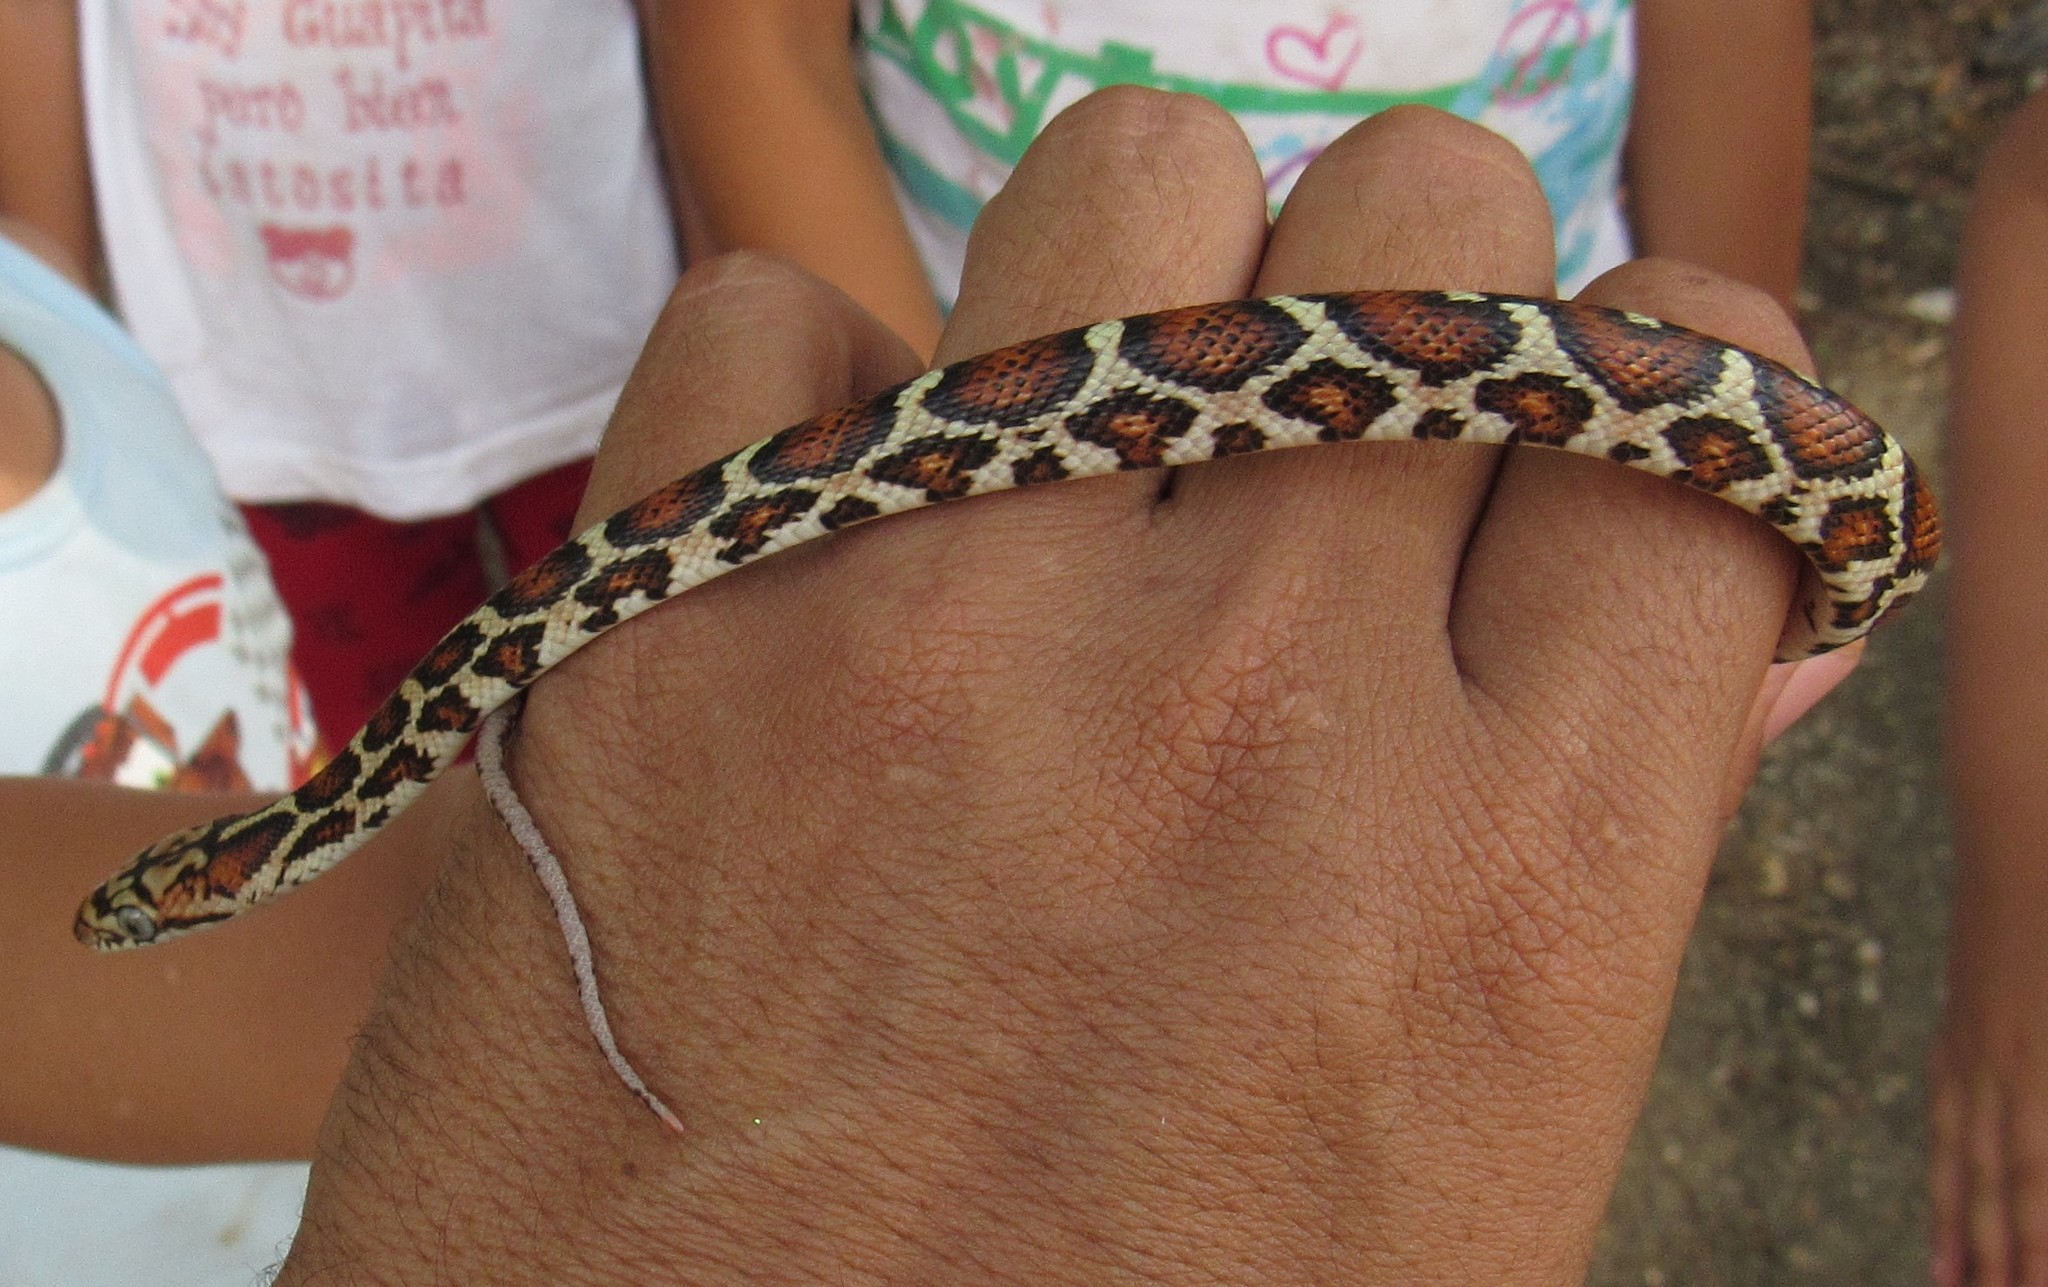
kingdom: Animalia
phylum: Chordata
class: Squamata
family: Colubridae
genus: Pseudelaphe
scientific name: Pseudelaphe flavirufa
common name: Yellow-red rat snake
